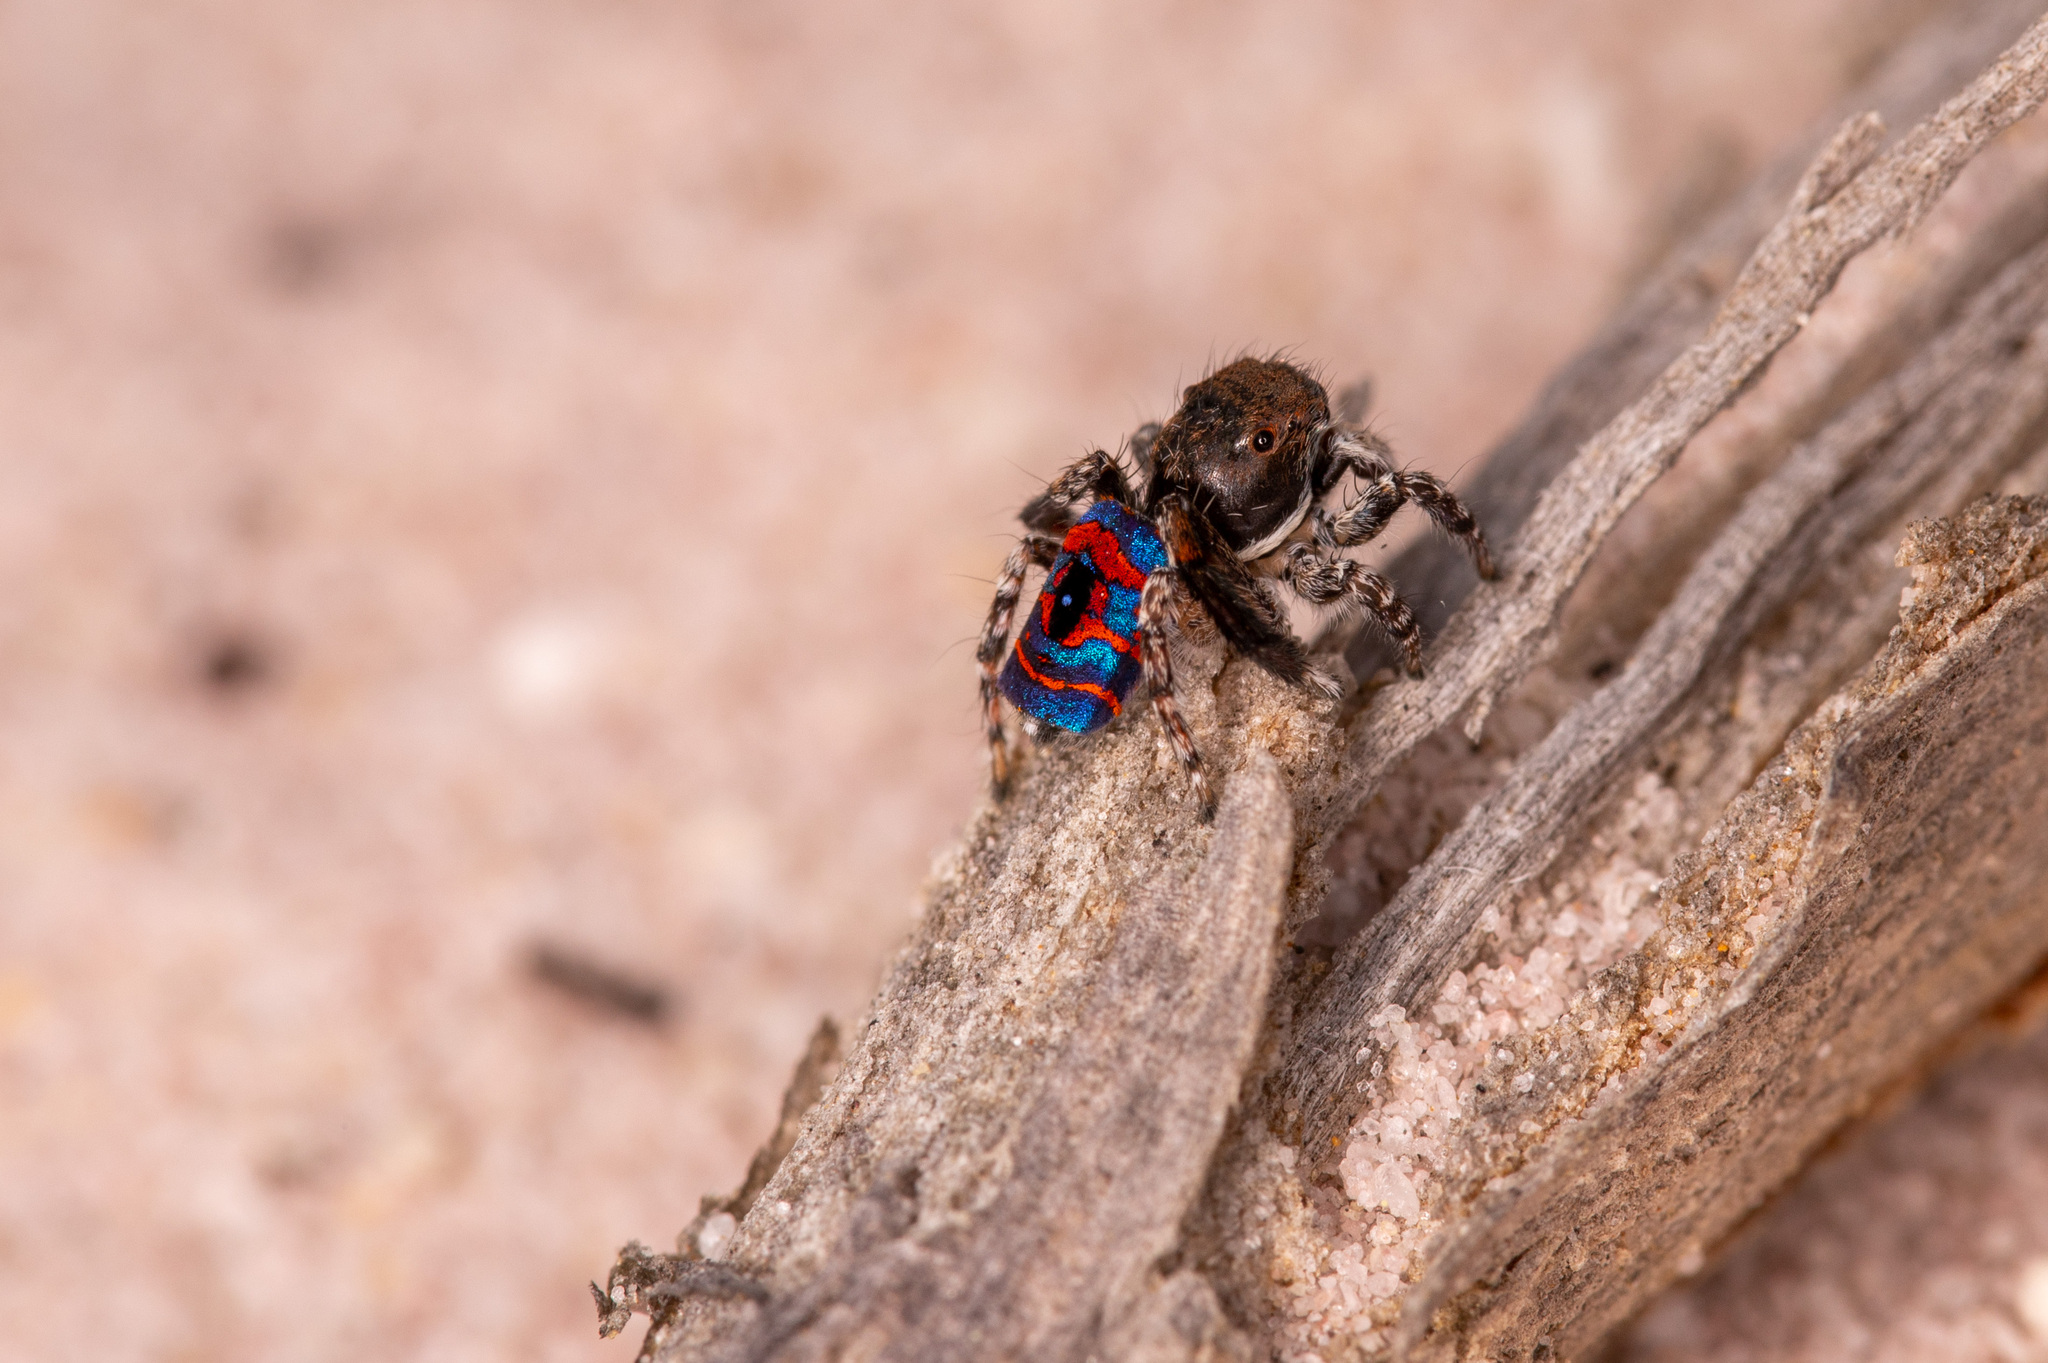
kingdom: Animalia
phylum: Arthropoda
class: Arachnida
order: Araneae
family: Salticidae
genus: Maratus
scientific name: Maratus hortorum
